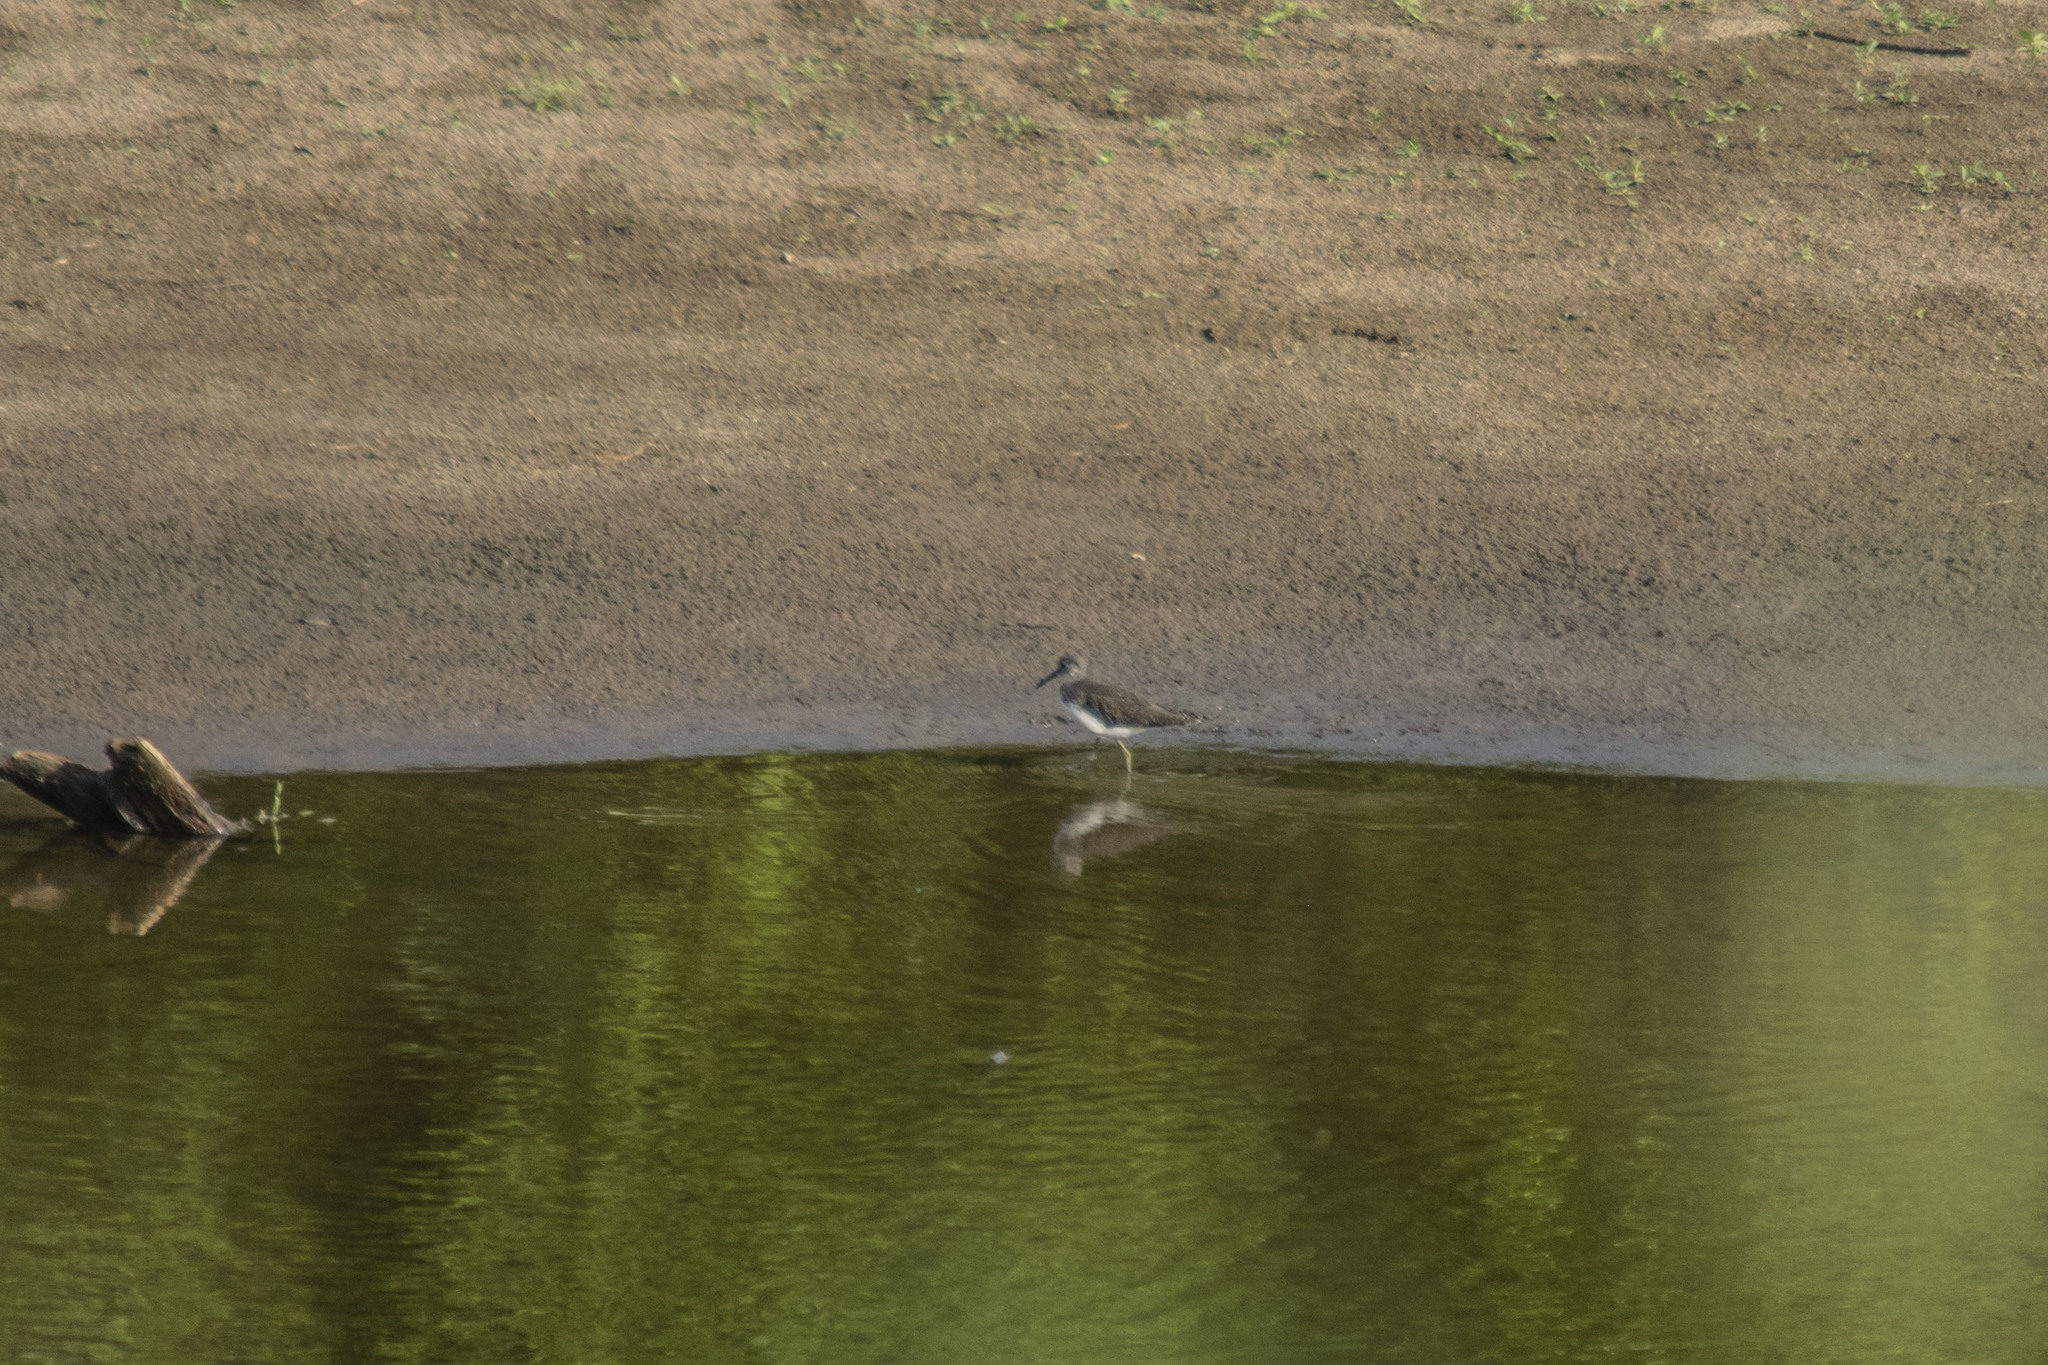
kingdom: Animalia
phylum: Chordata
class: Aves
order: Charadriiformes
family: Scolopacidae
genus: Tringa
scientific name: Tringa ochropus
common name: Green sandpiper
